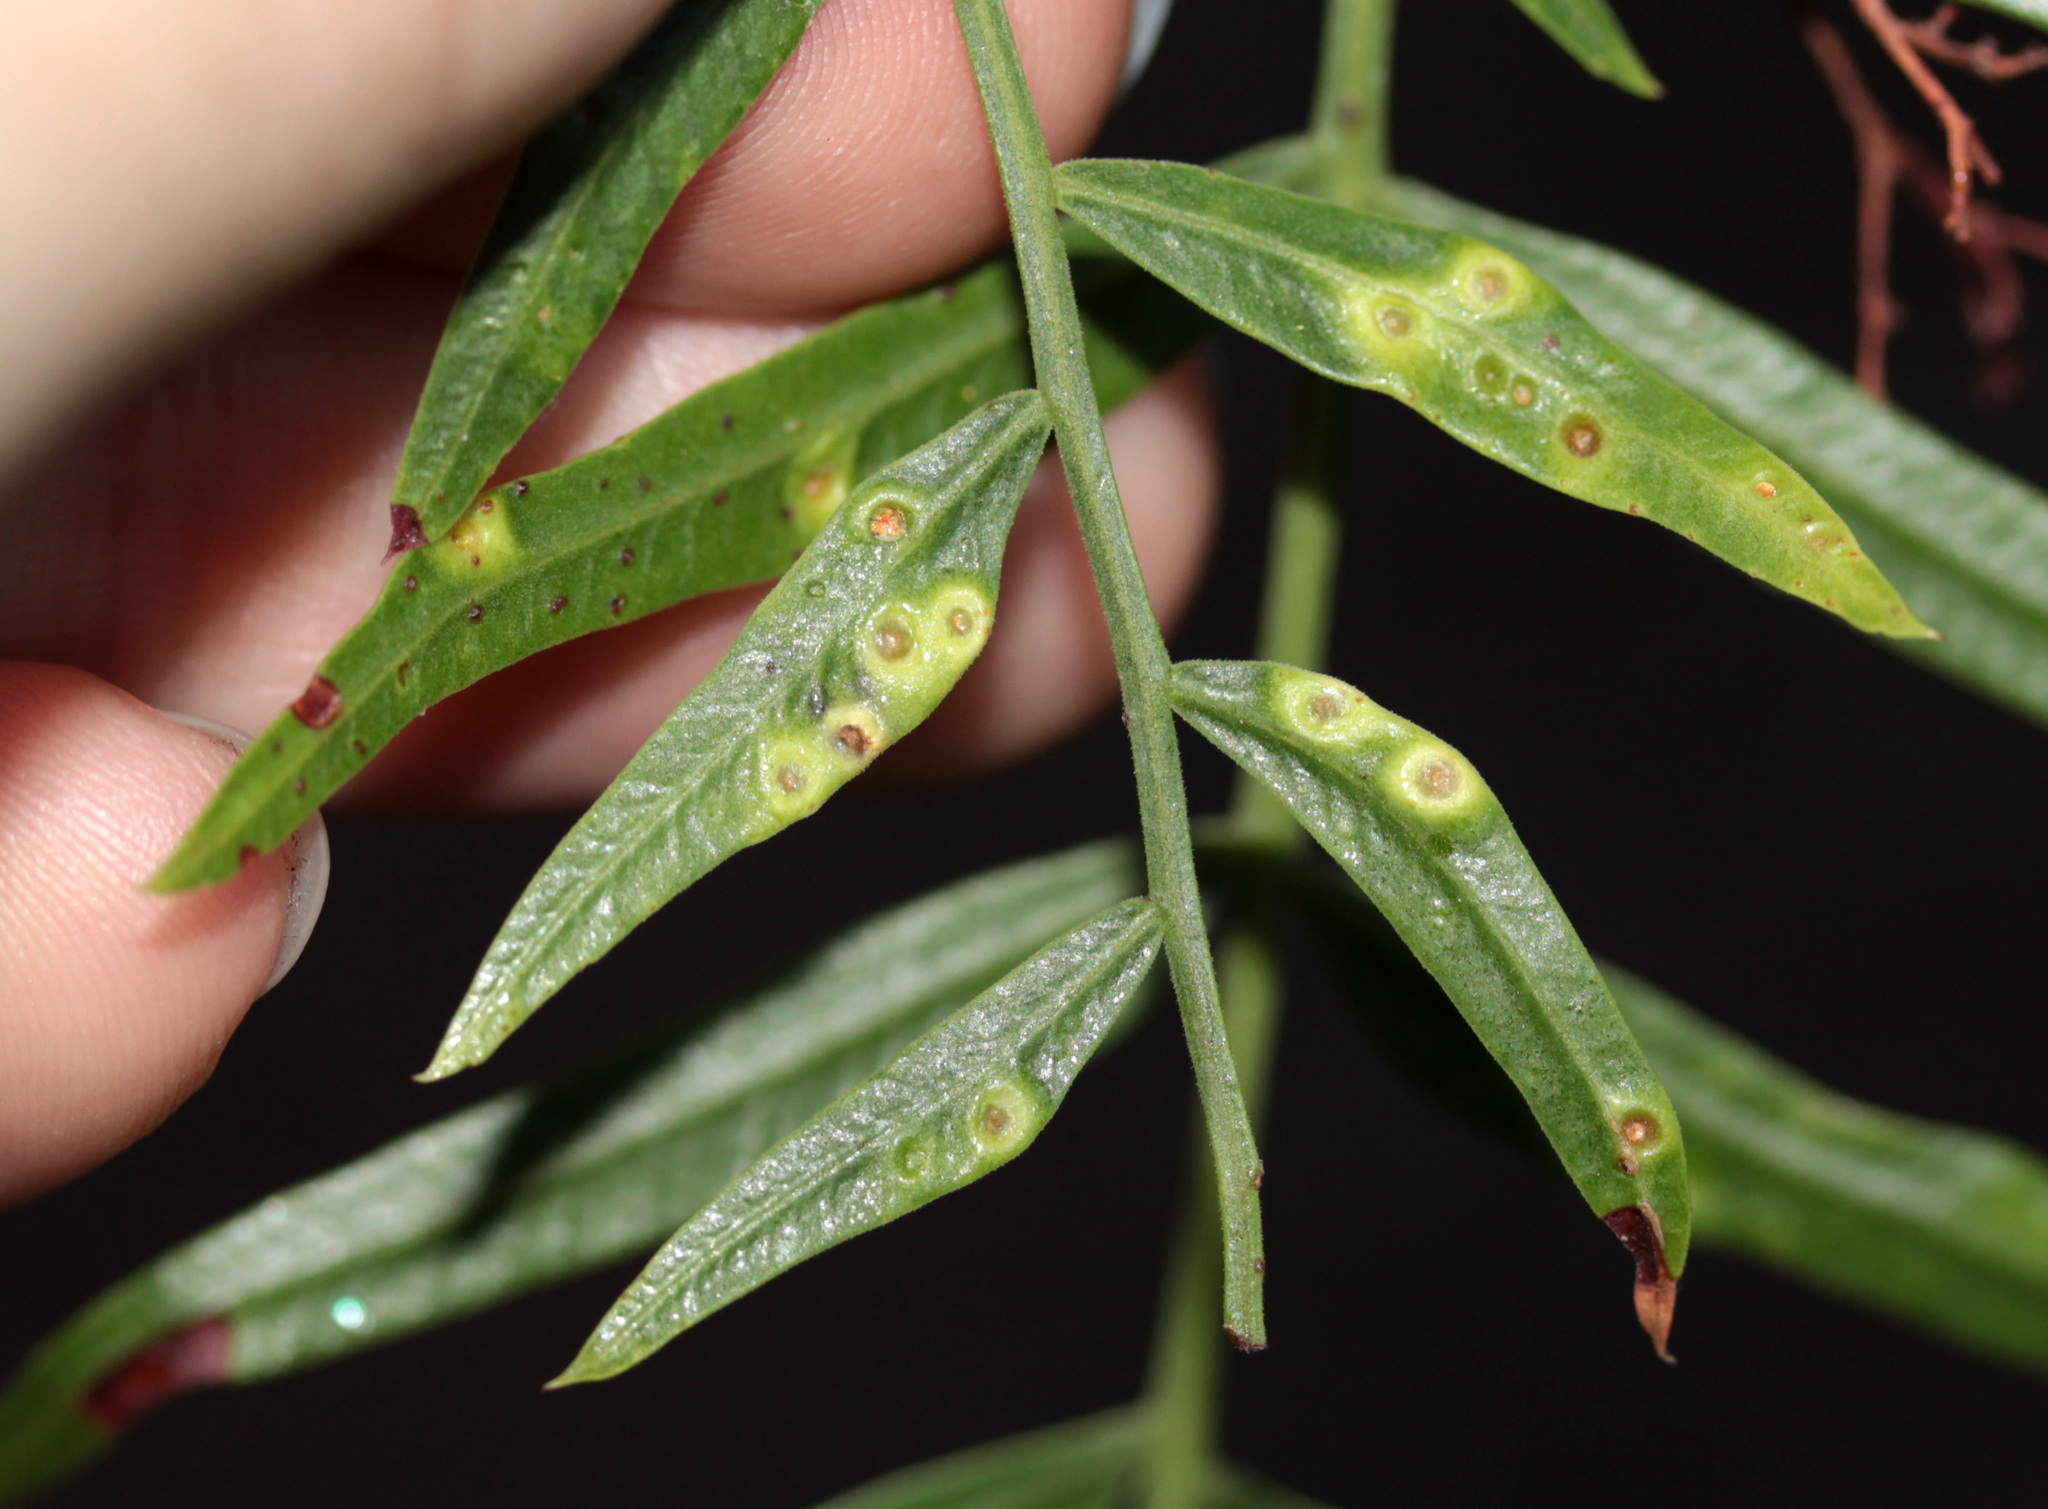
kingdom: Animalia
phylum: Arthropoda
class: Insecta
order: Hemiptera
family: Calophyidae
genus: Calophya
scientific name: Calophya schini
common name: Pepper tree psyllid
